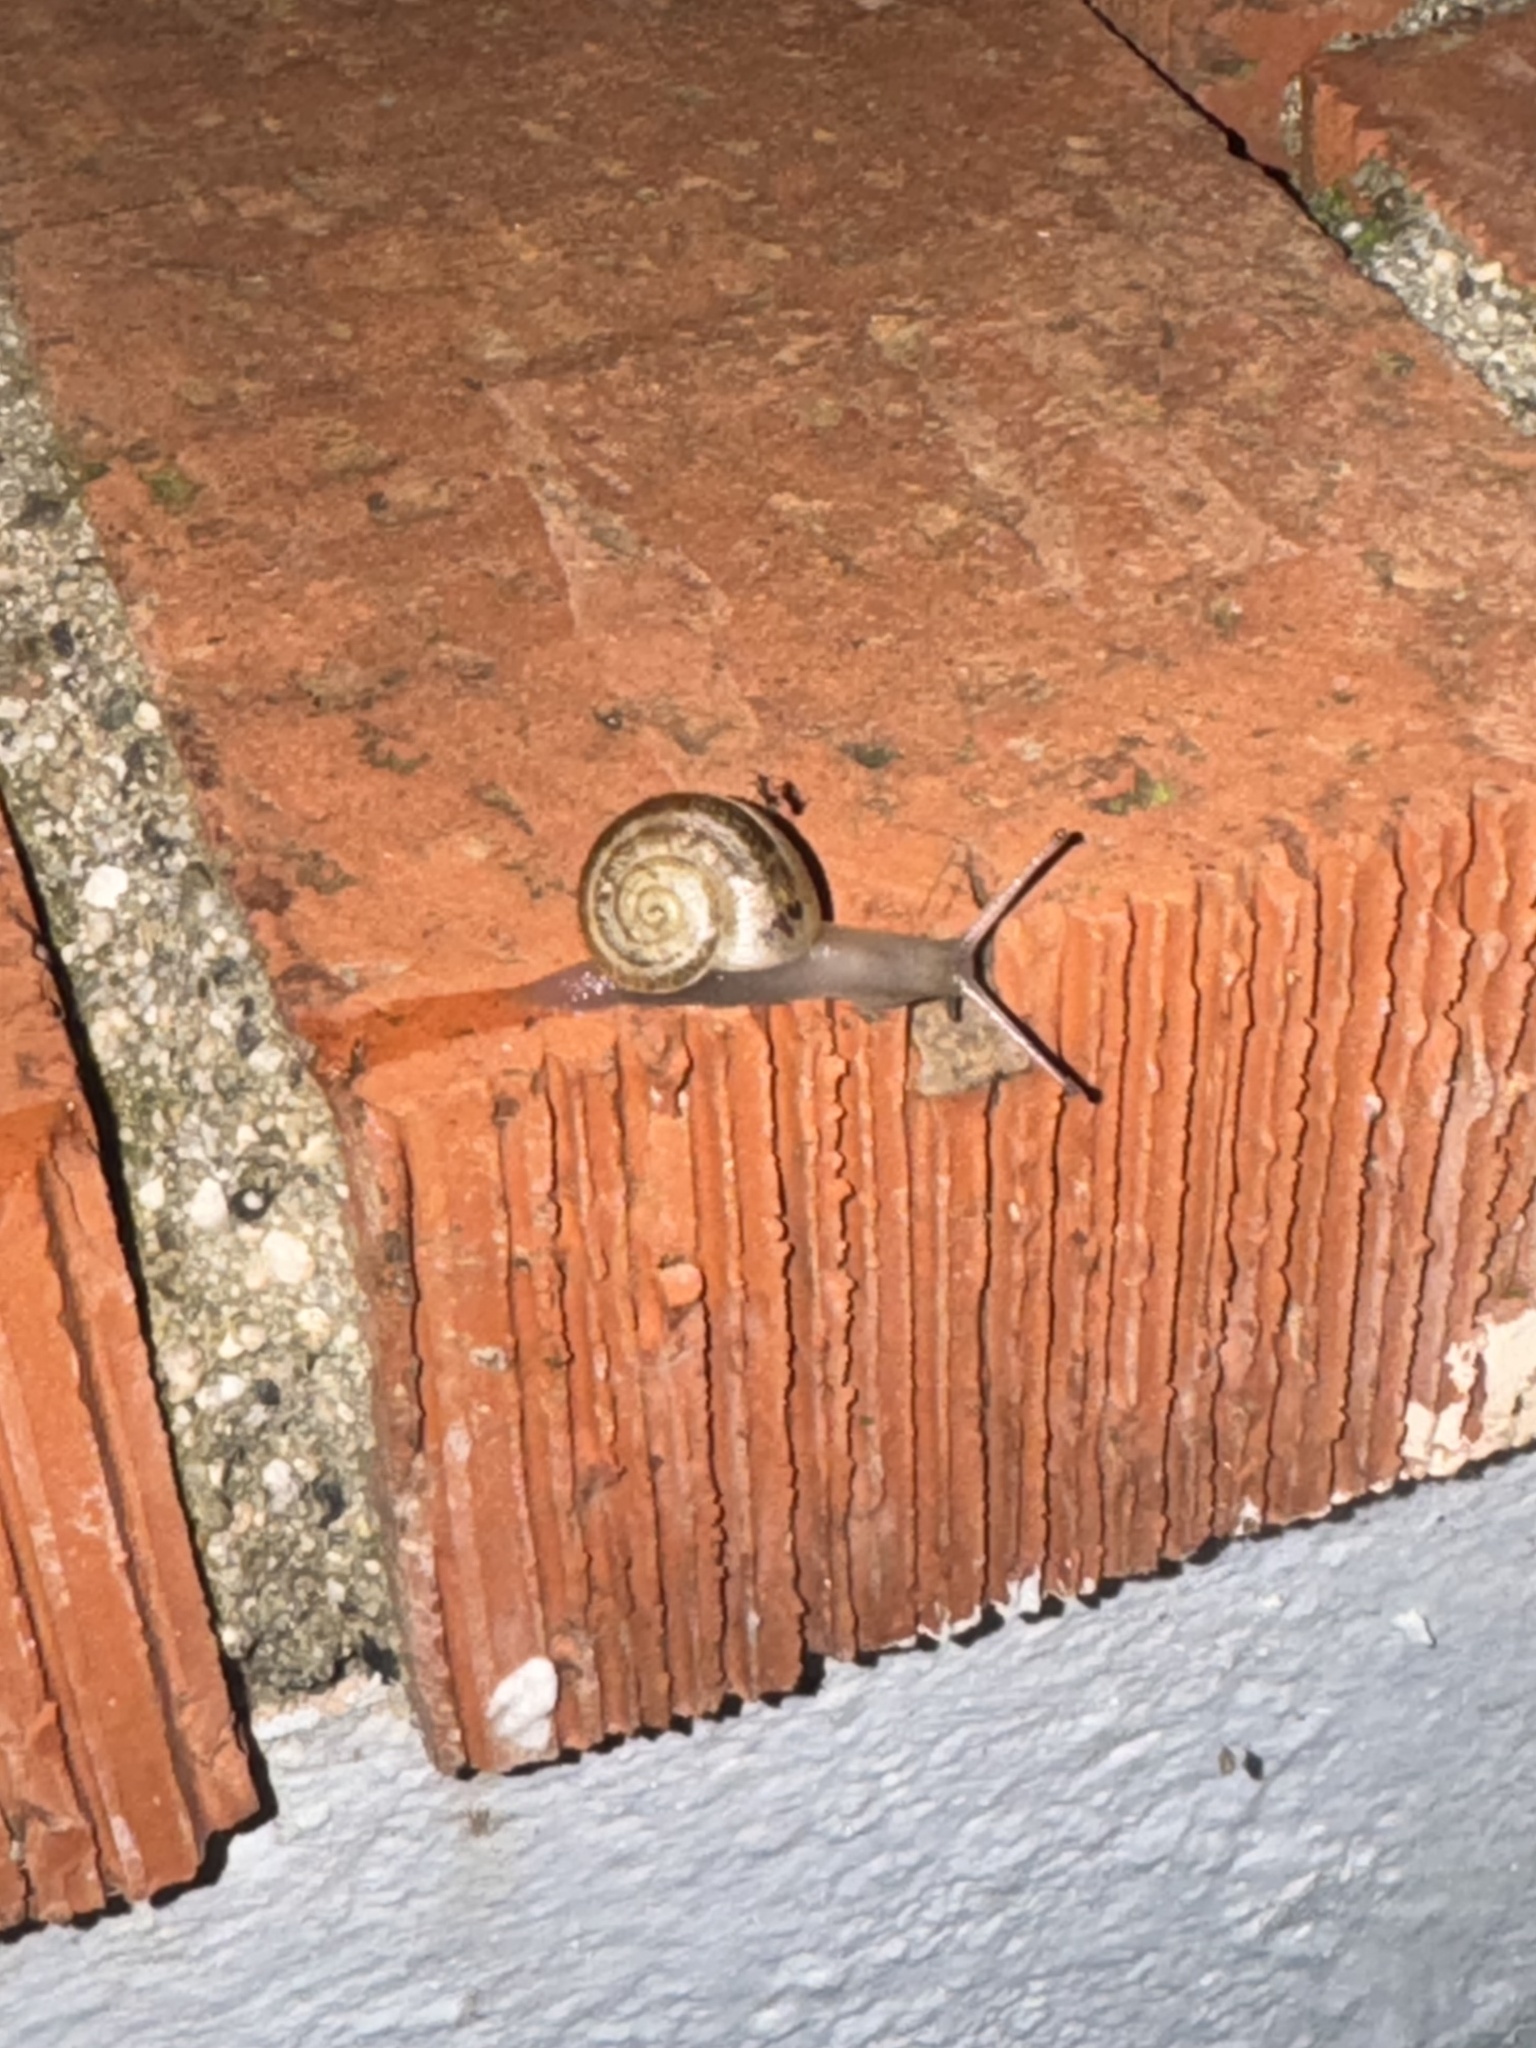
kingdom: Animalia
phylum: Mollusca
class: Gastropoda
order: Stylommatophora
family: Helicidae
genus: Otala
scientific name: Otala lactea
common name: Milk snail
